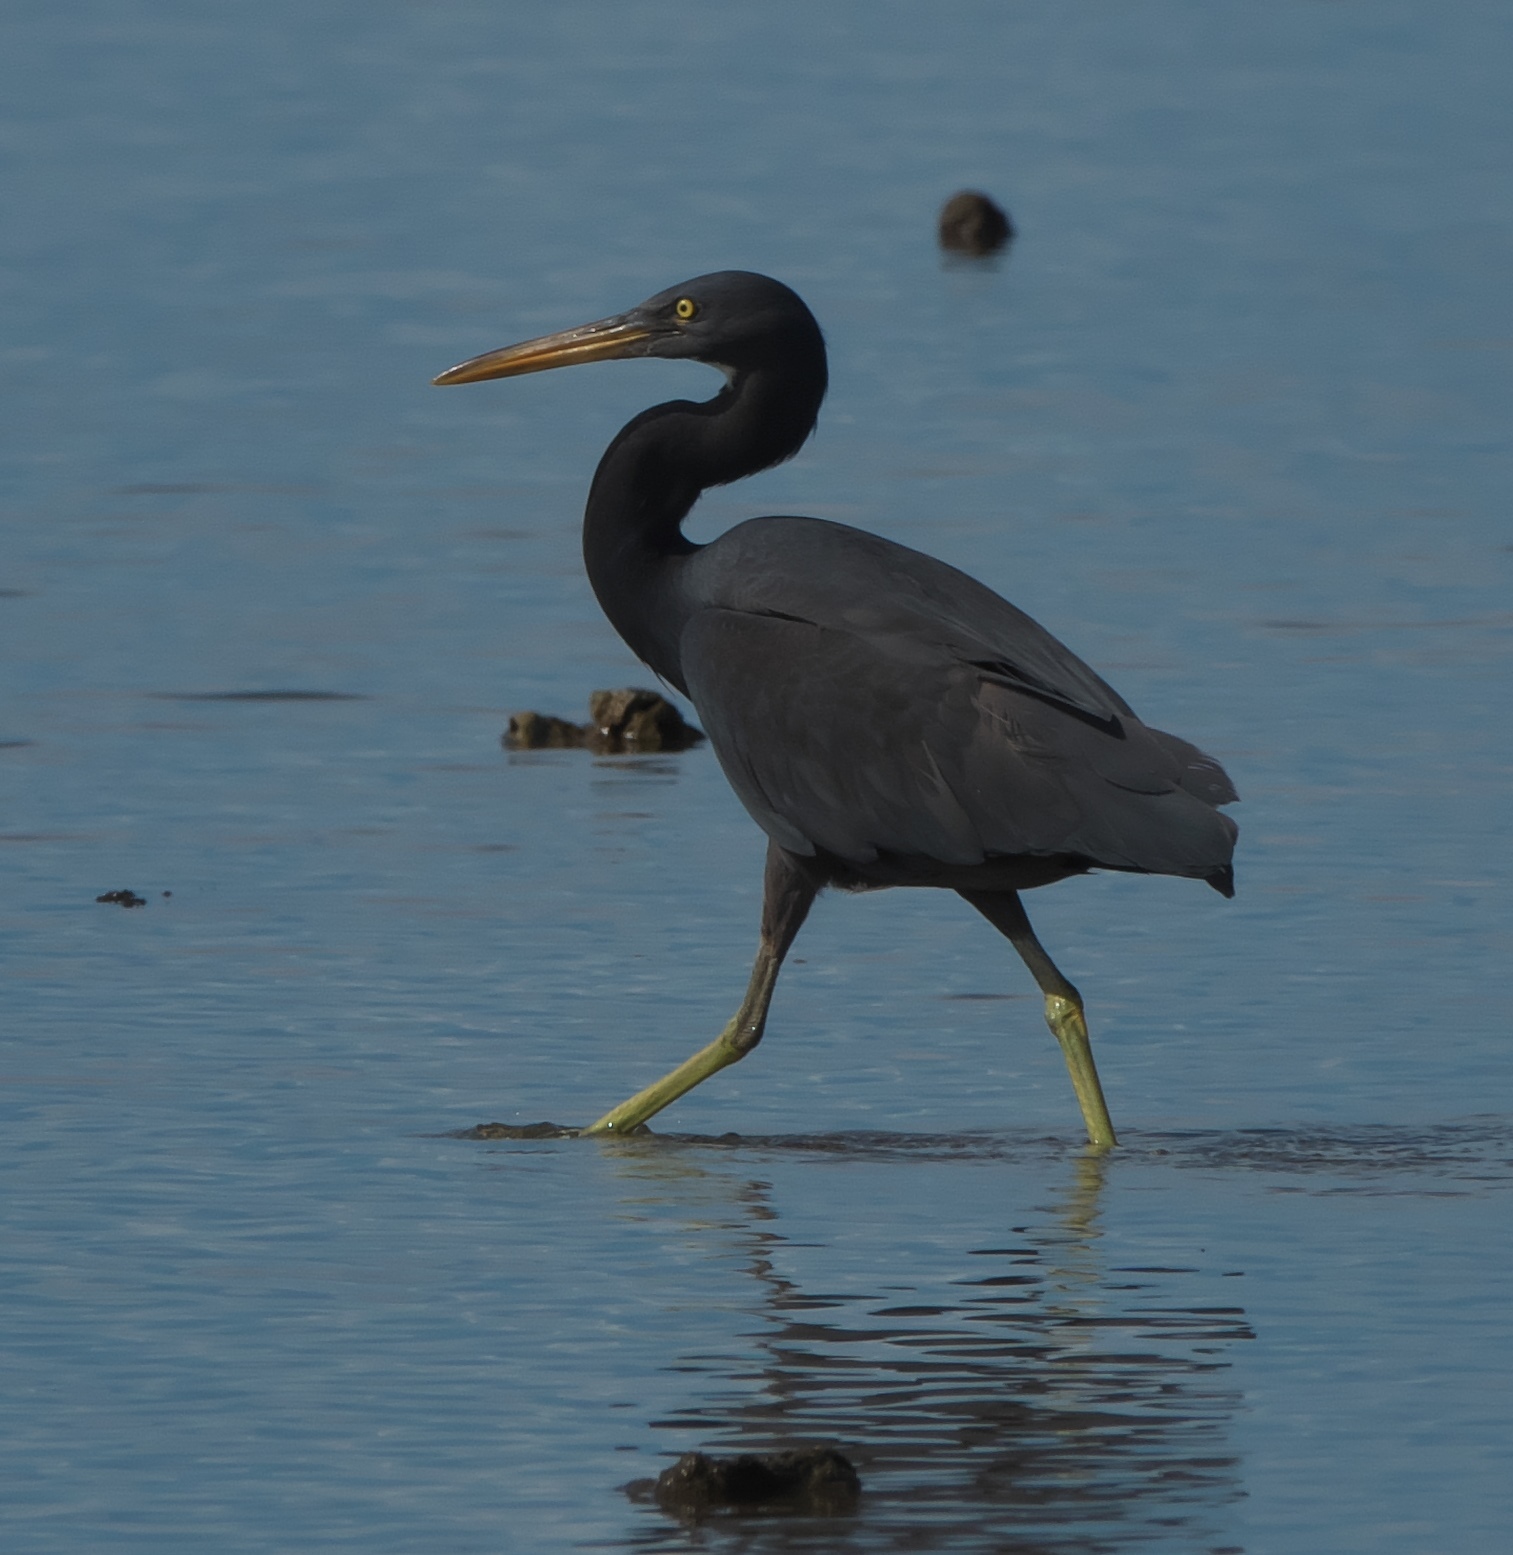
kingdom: Animalia
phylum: Chordata
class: Aves
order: Pelecaniformes
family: Ardeidae
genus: Egretta
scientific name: Egretta sacra
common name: Pacific reef heron
